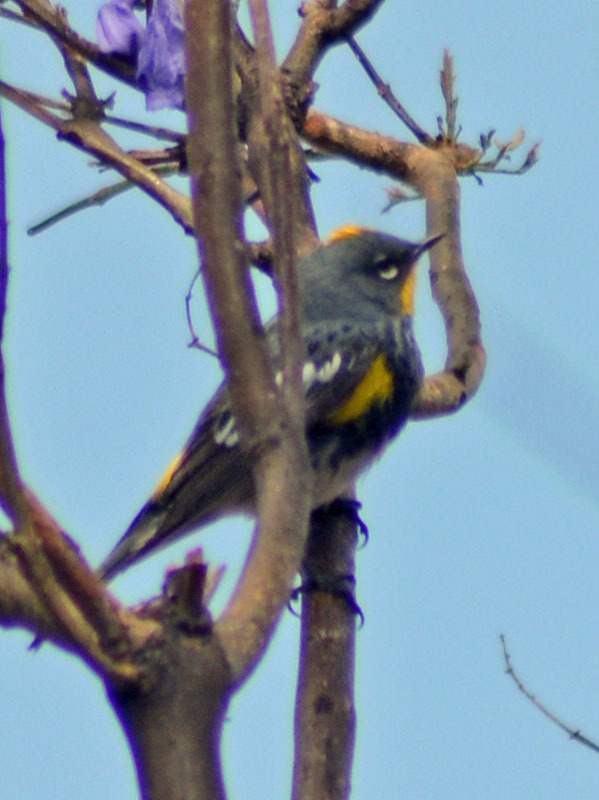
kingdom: Animalia
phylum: Chordata
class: Aves
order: Passeriformes
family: Parulidae
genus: Setophaga
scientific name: Setophaga auduboni
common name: Audubon's warbler
